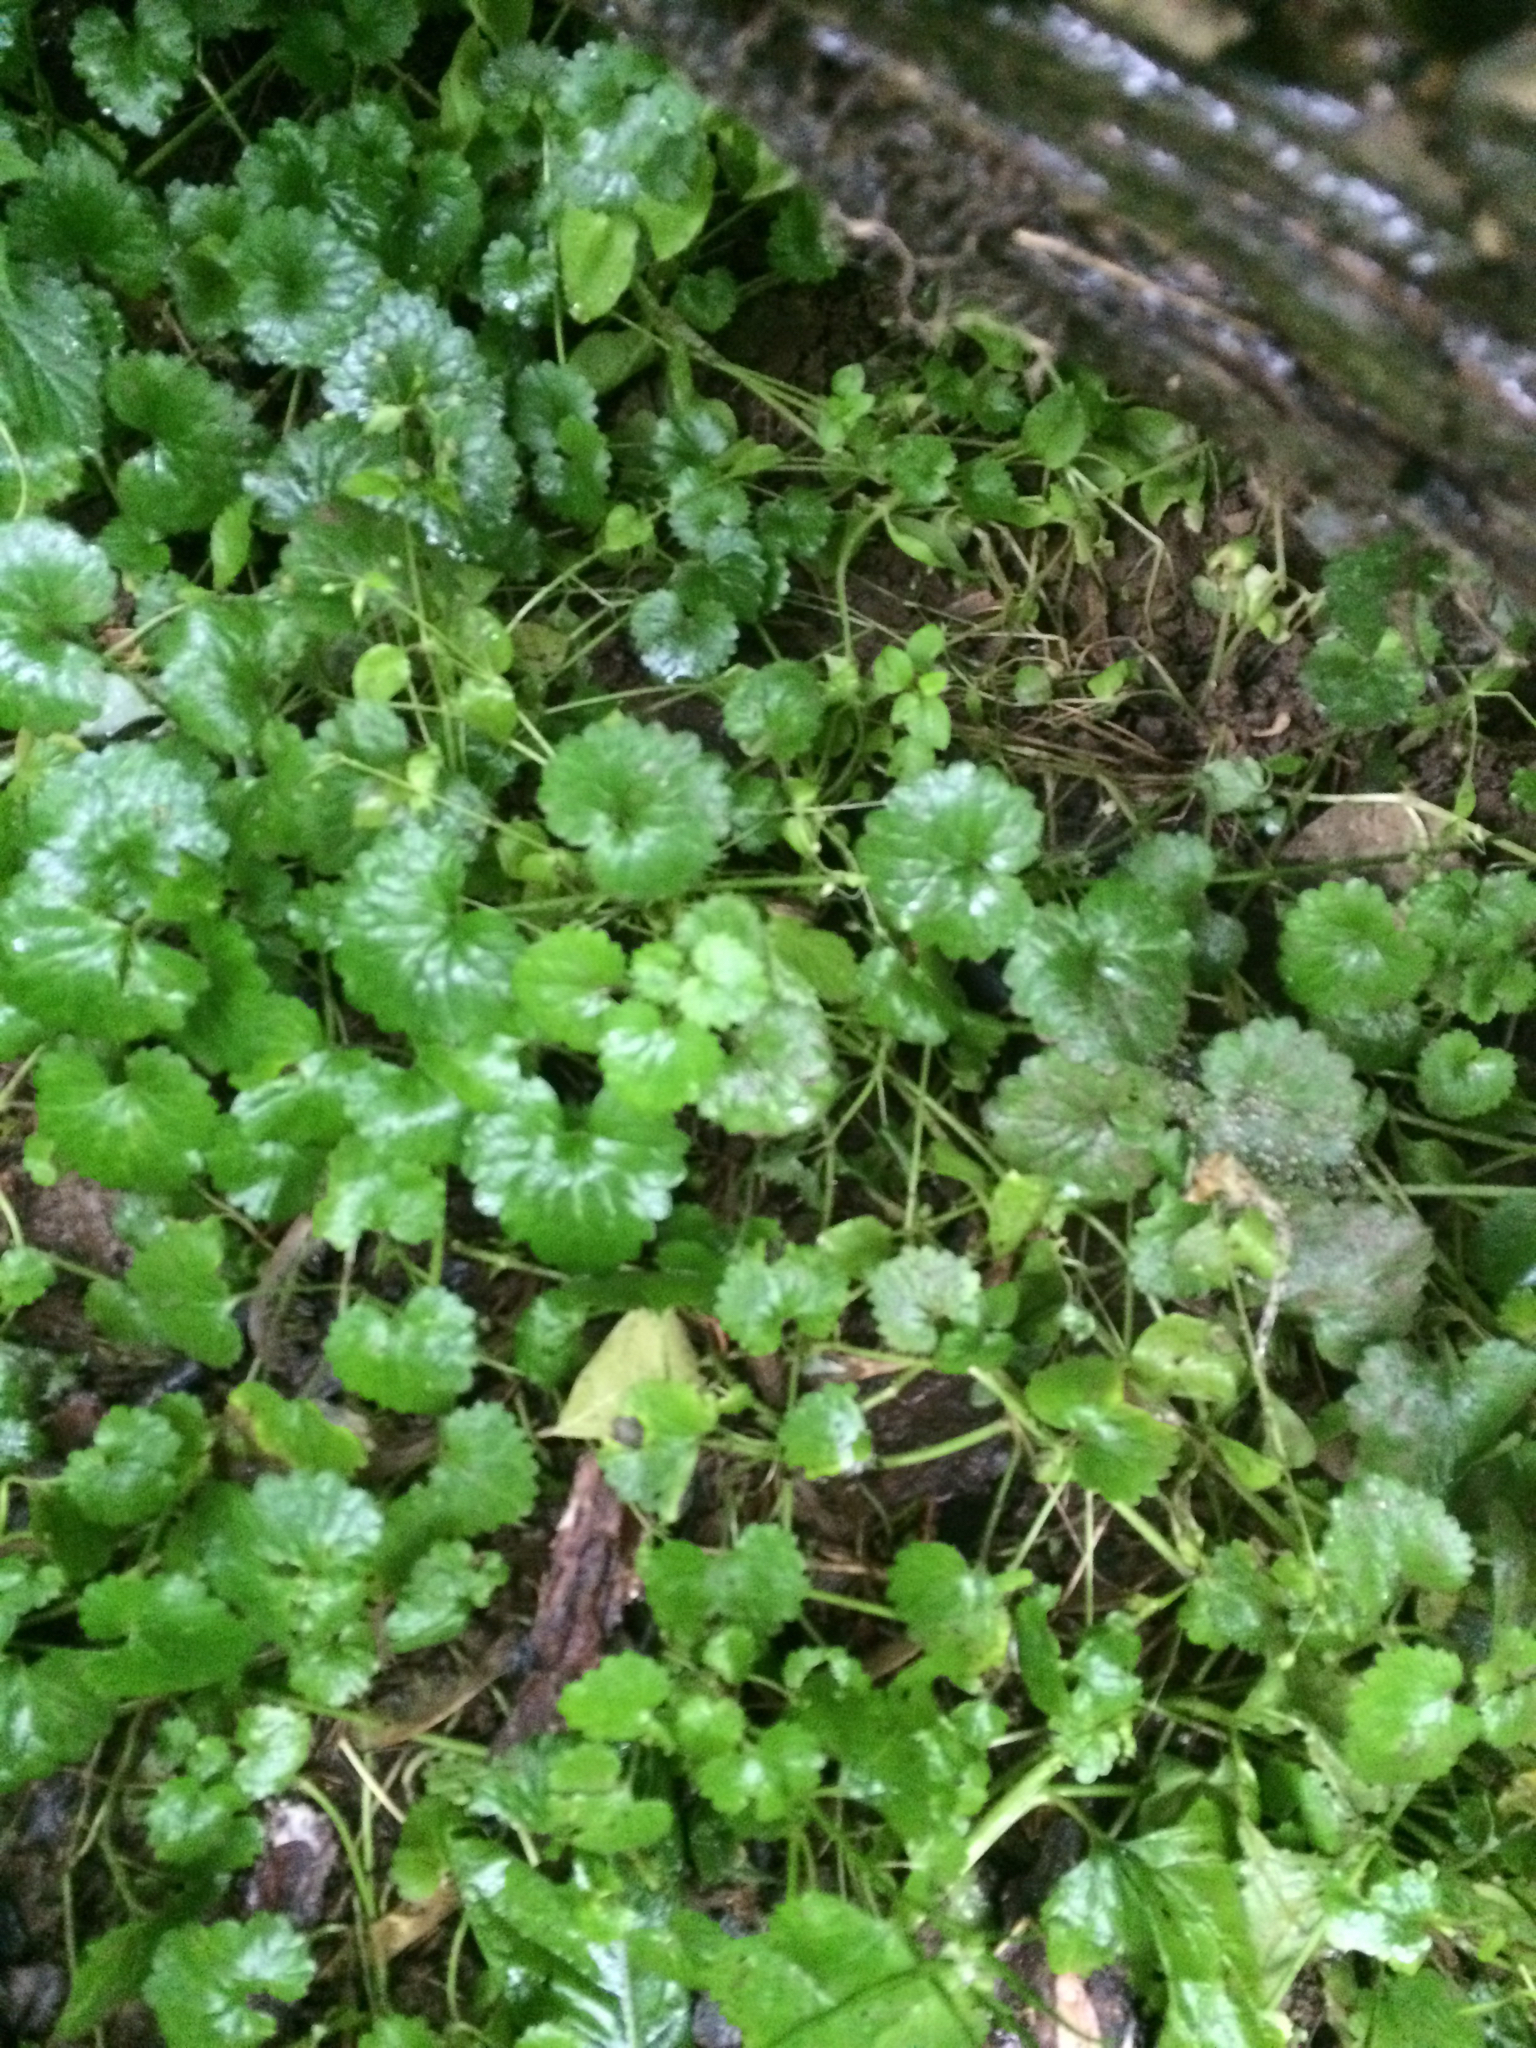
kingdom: Plantae
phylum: Tracheophyta
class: Magnoliopsida
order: Lamiales
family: Lamiaceae
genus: Glechoma
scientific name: Glechoma hederacea
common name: Ground ivy
